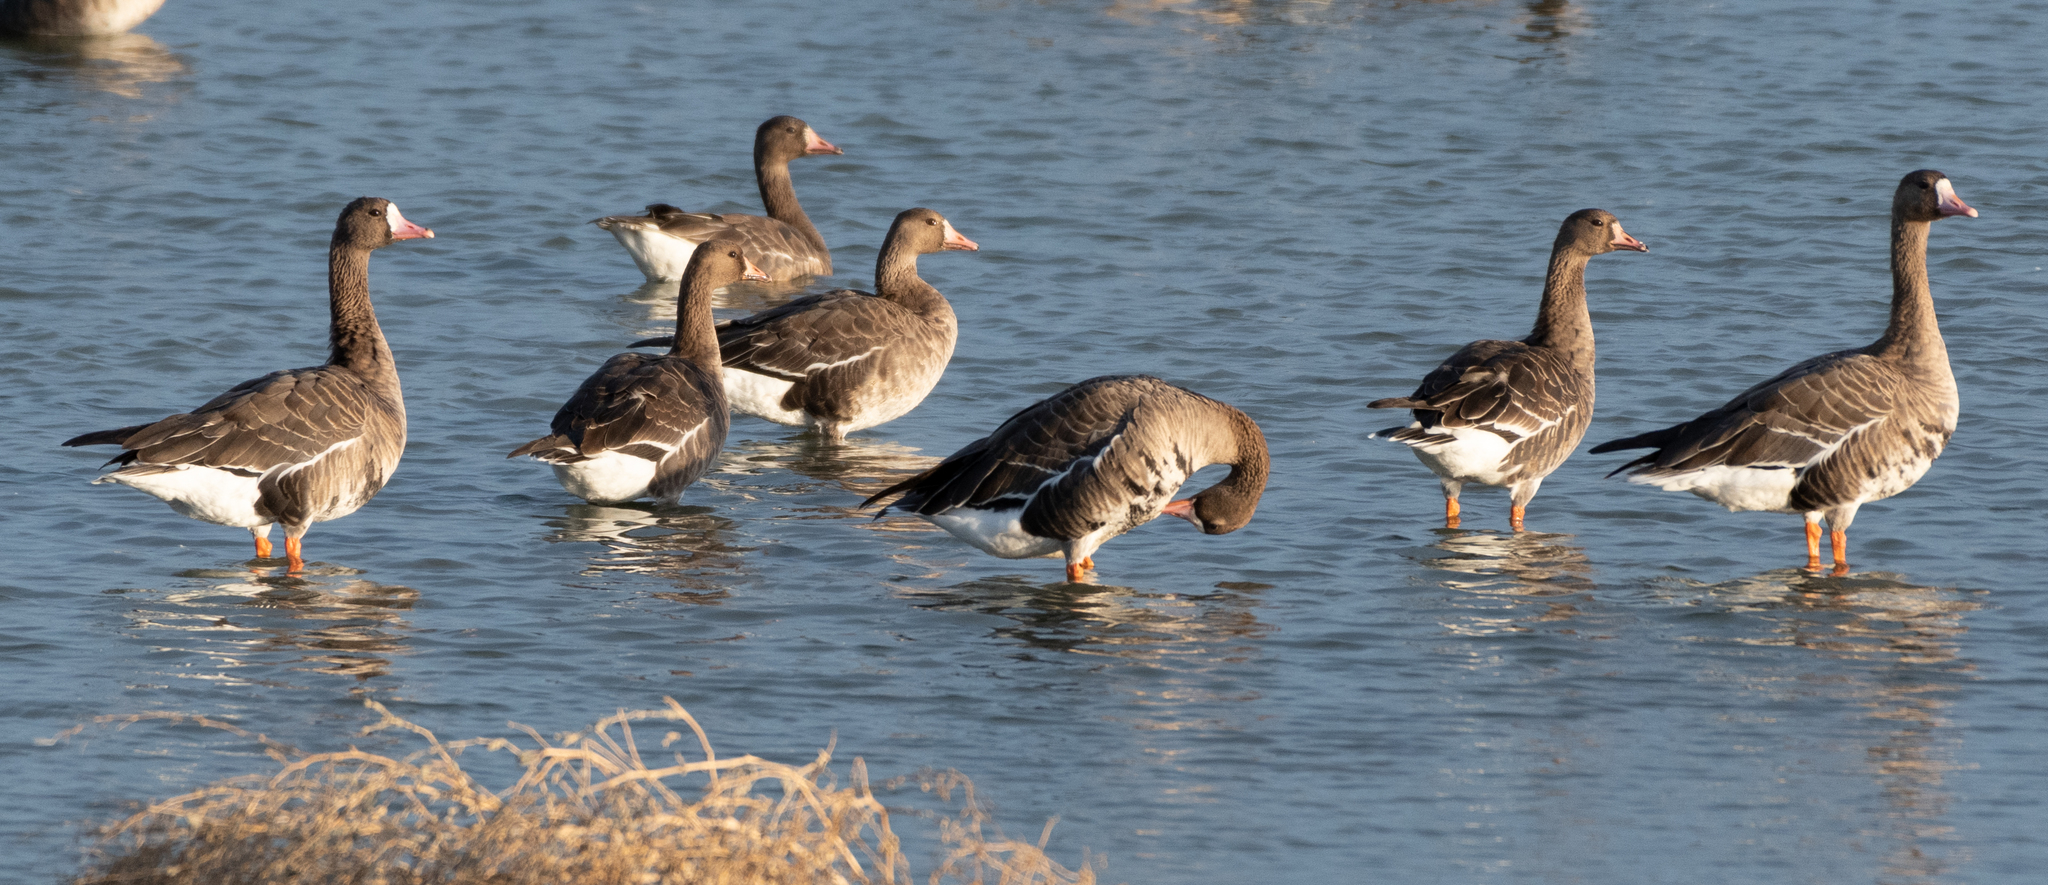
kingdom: Animalia
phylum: Chordata
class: Aves
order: Anseriformes
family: Anatidae
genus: Anser
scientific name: Anser albifrons
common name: Greater white-fronted goose
